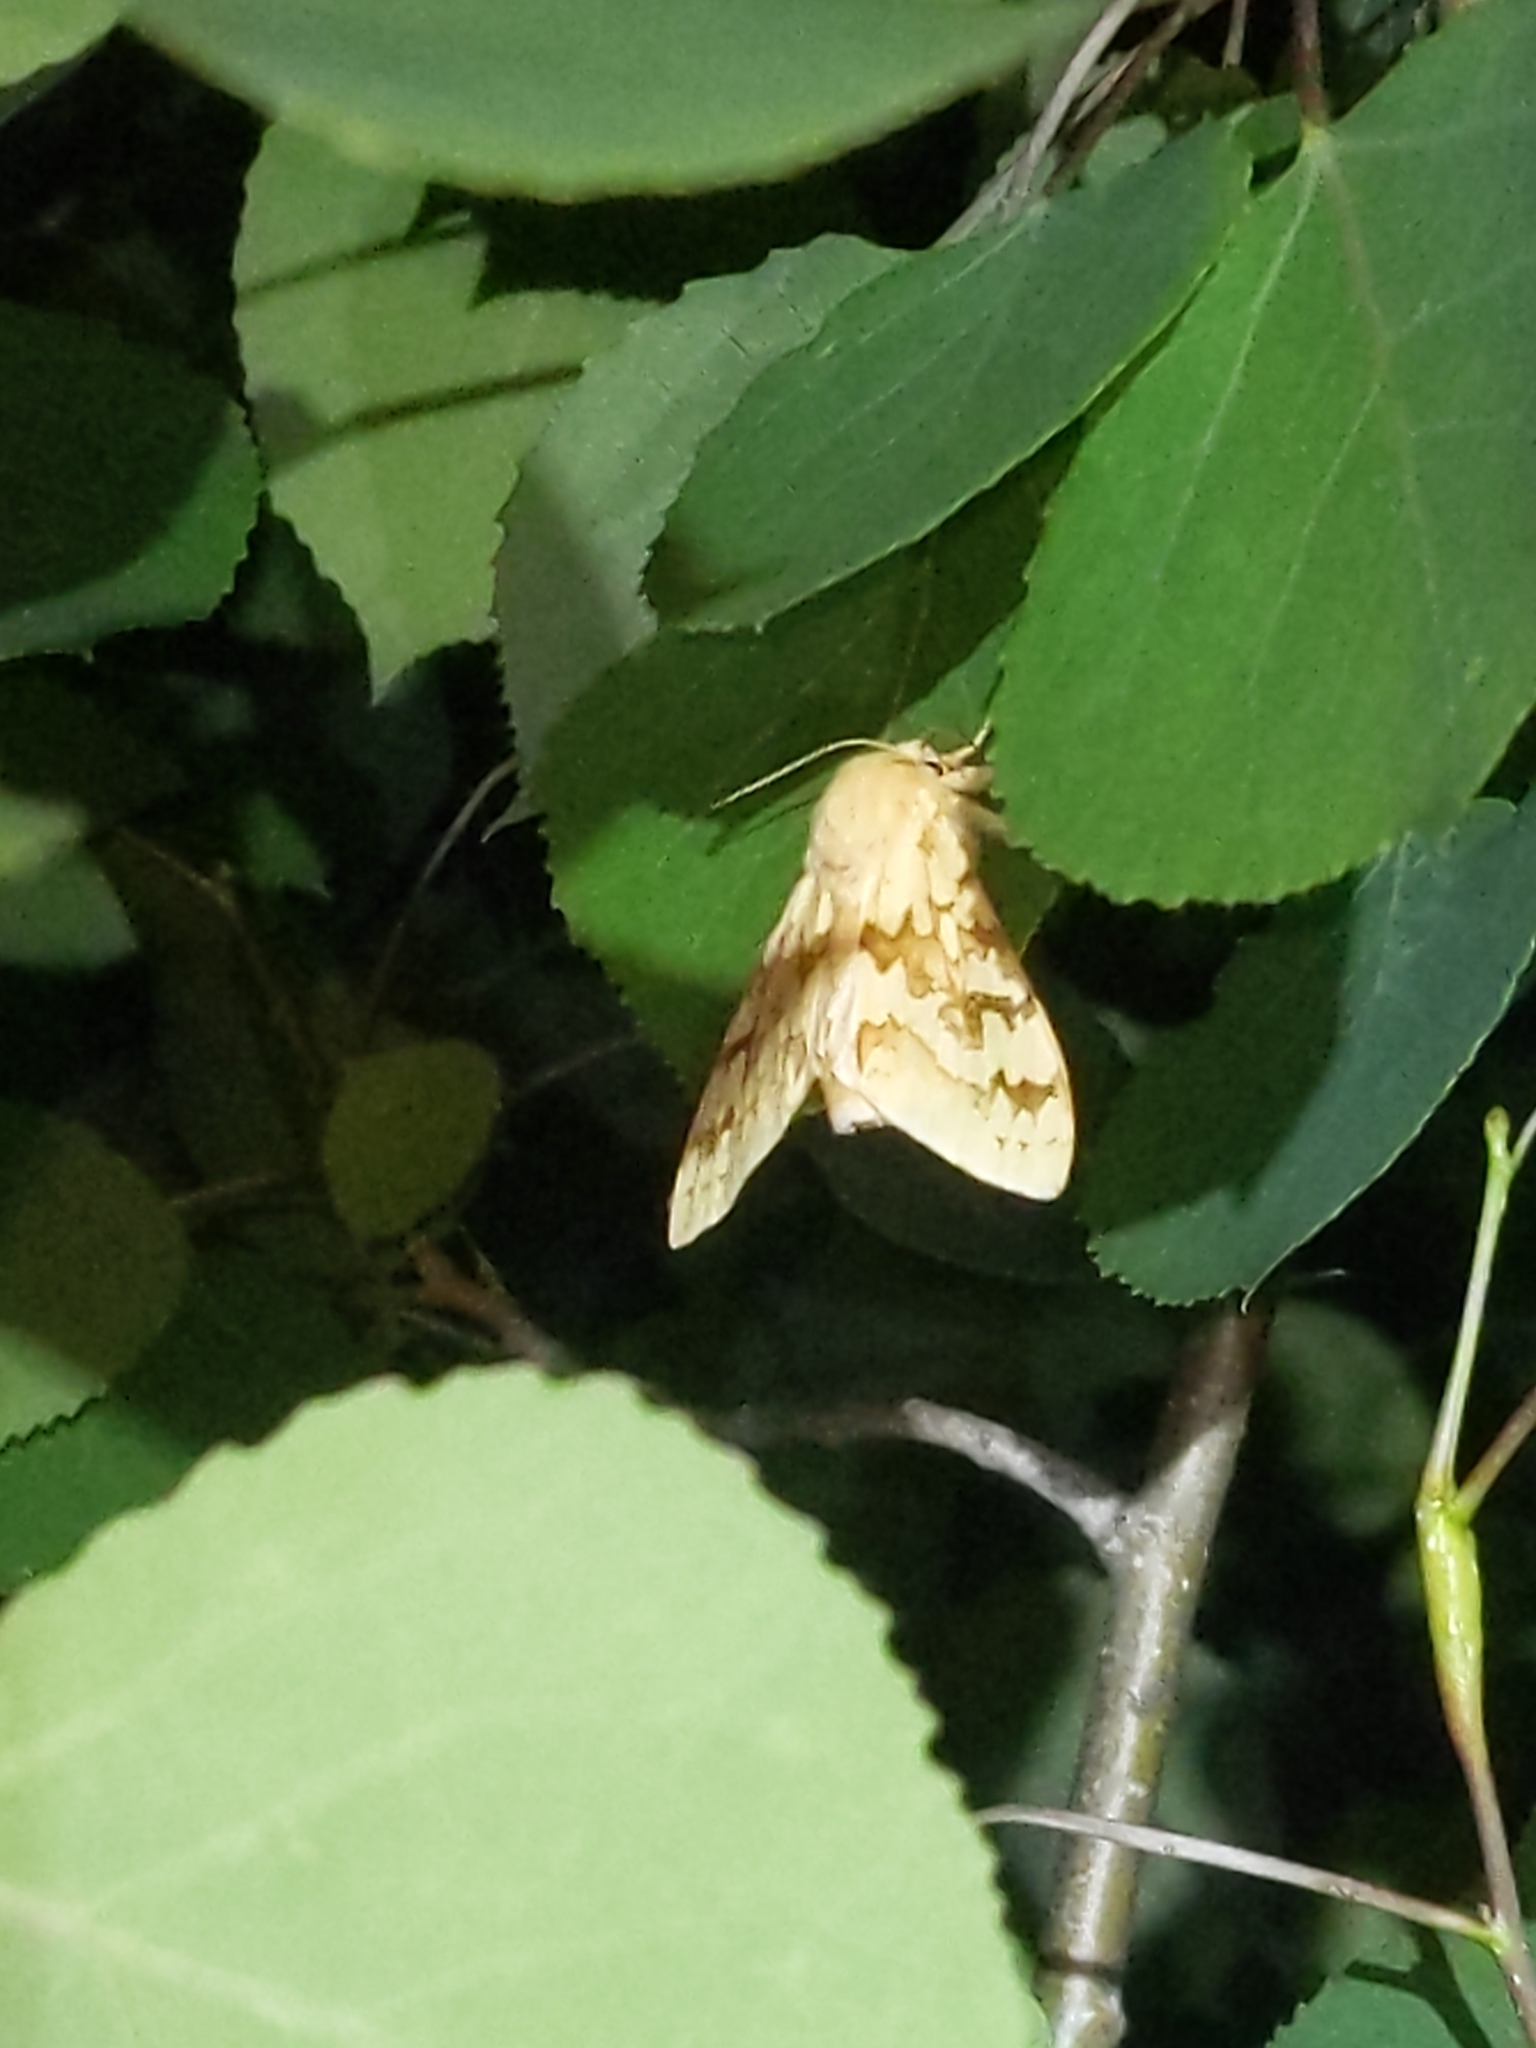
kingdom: Animalia
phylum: Arthropoda
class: Insecta
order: Lepidoptera
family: Erebidae
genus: Lophocampa
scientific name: Lophocampa maculata
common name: Spotted tussock moth
